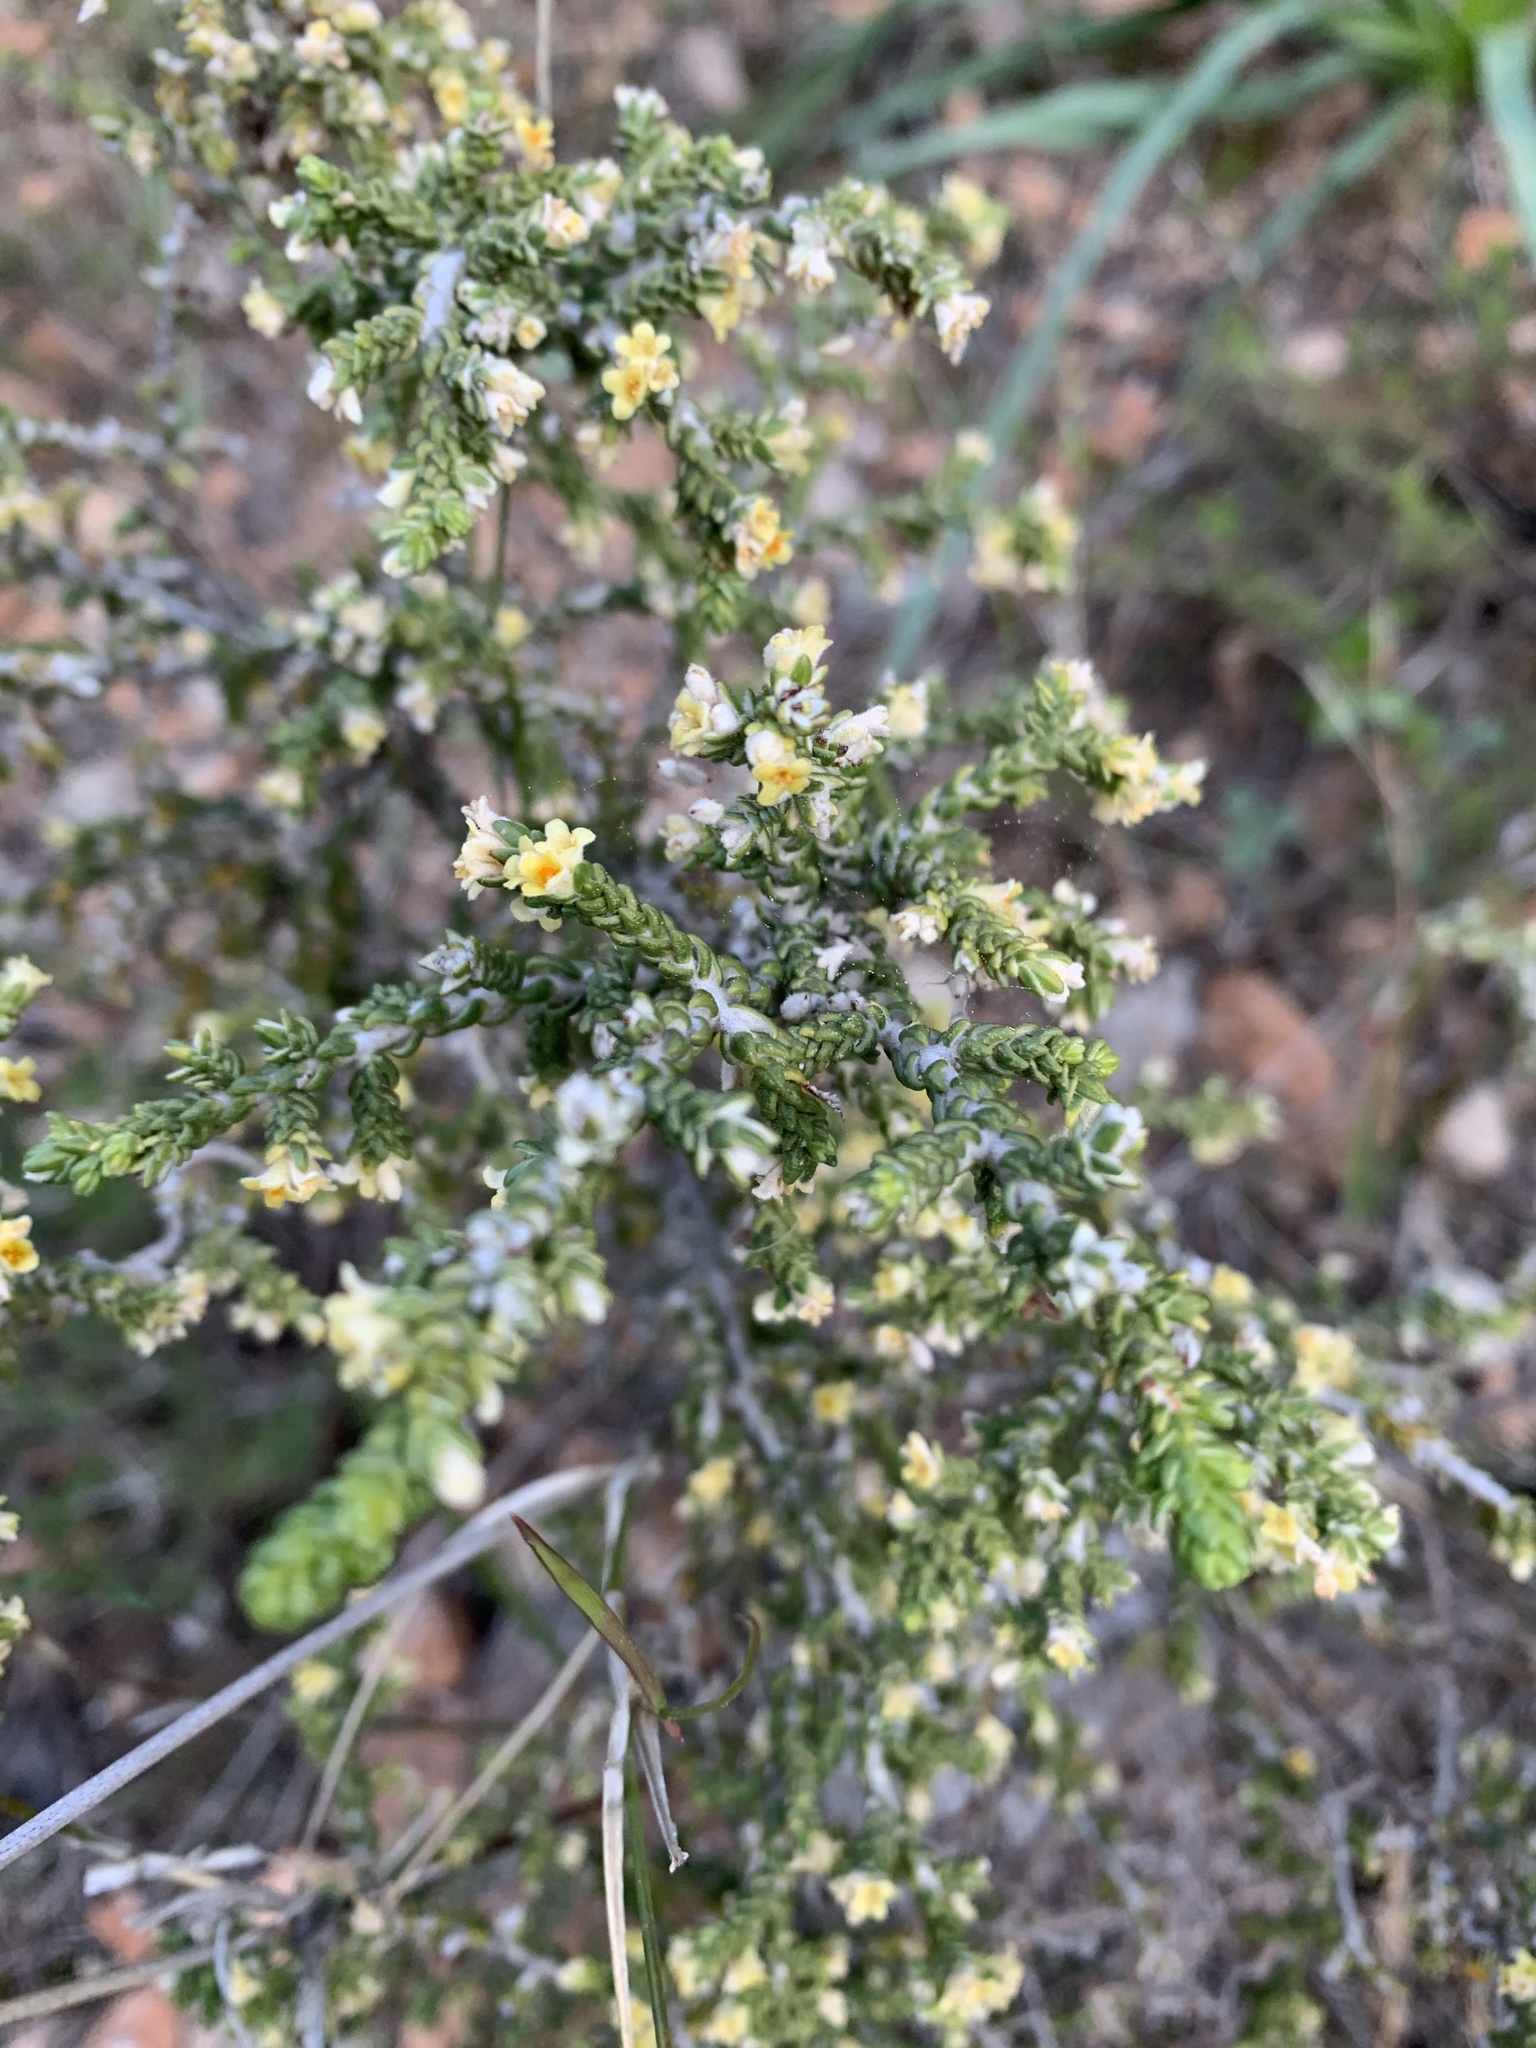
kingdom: Plantae
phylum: Tracheophyta
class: Magnoliopsida
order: Malvales
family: Thymelaeaceae
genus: Thymelaea
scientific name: Thymelaea hirsuta
